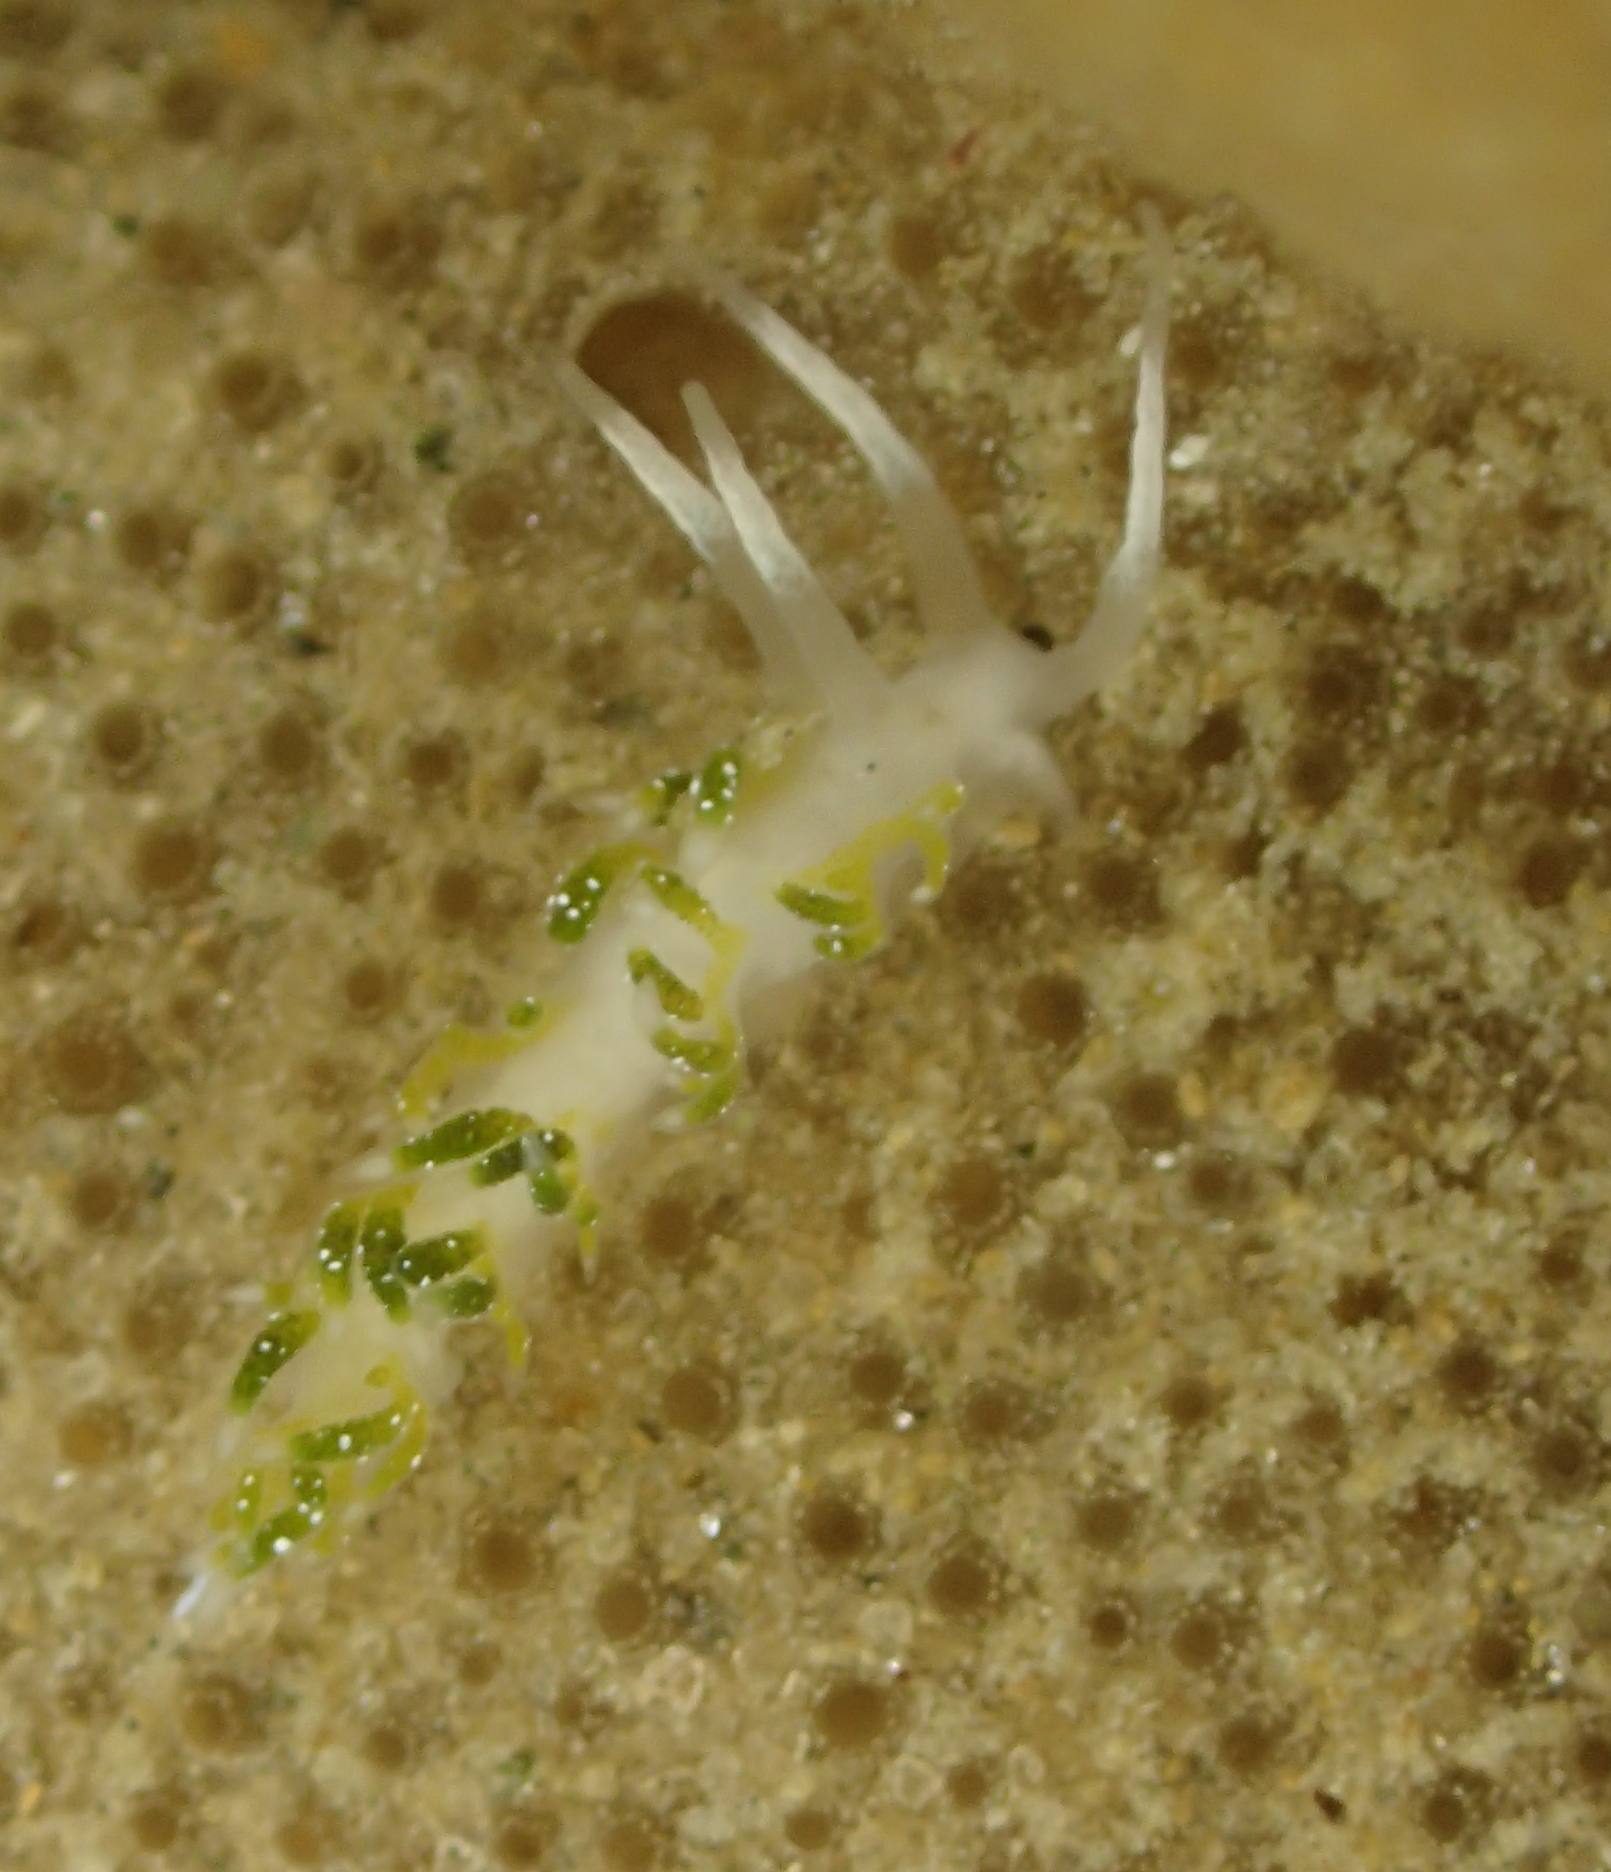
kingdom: Animalia
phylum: Mollusca
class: Gastropoda
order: Nudibranchia
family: Apataidae
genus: Tularia
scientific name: Tularia bractea
